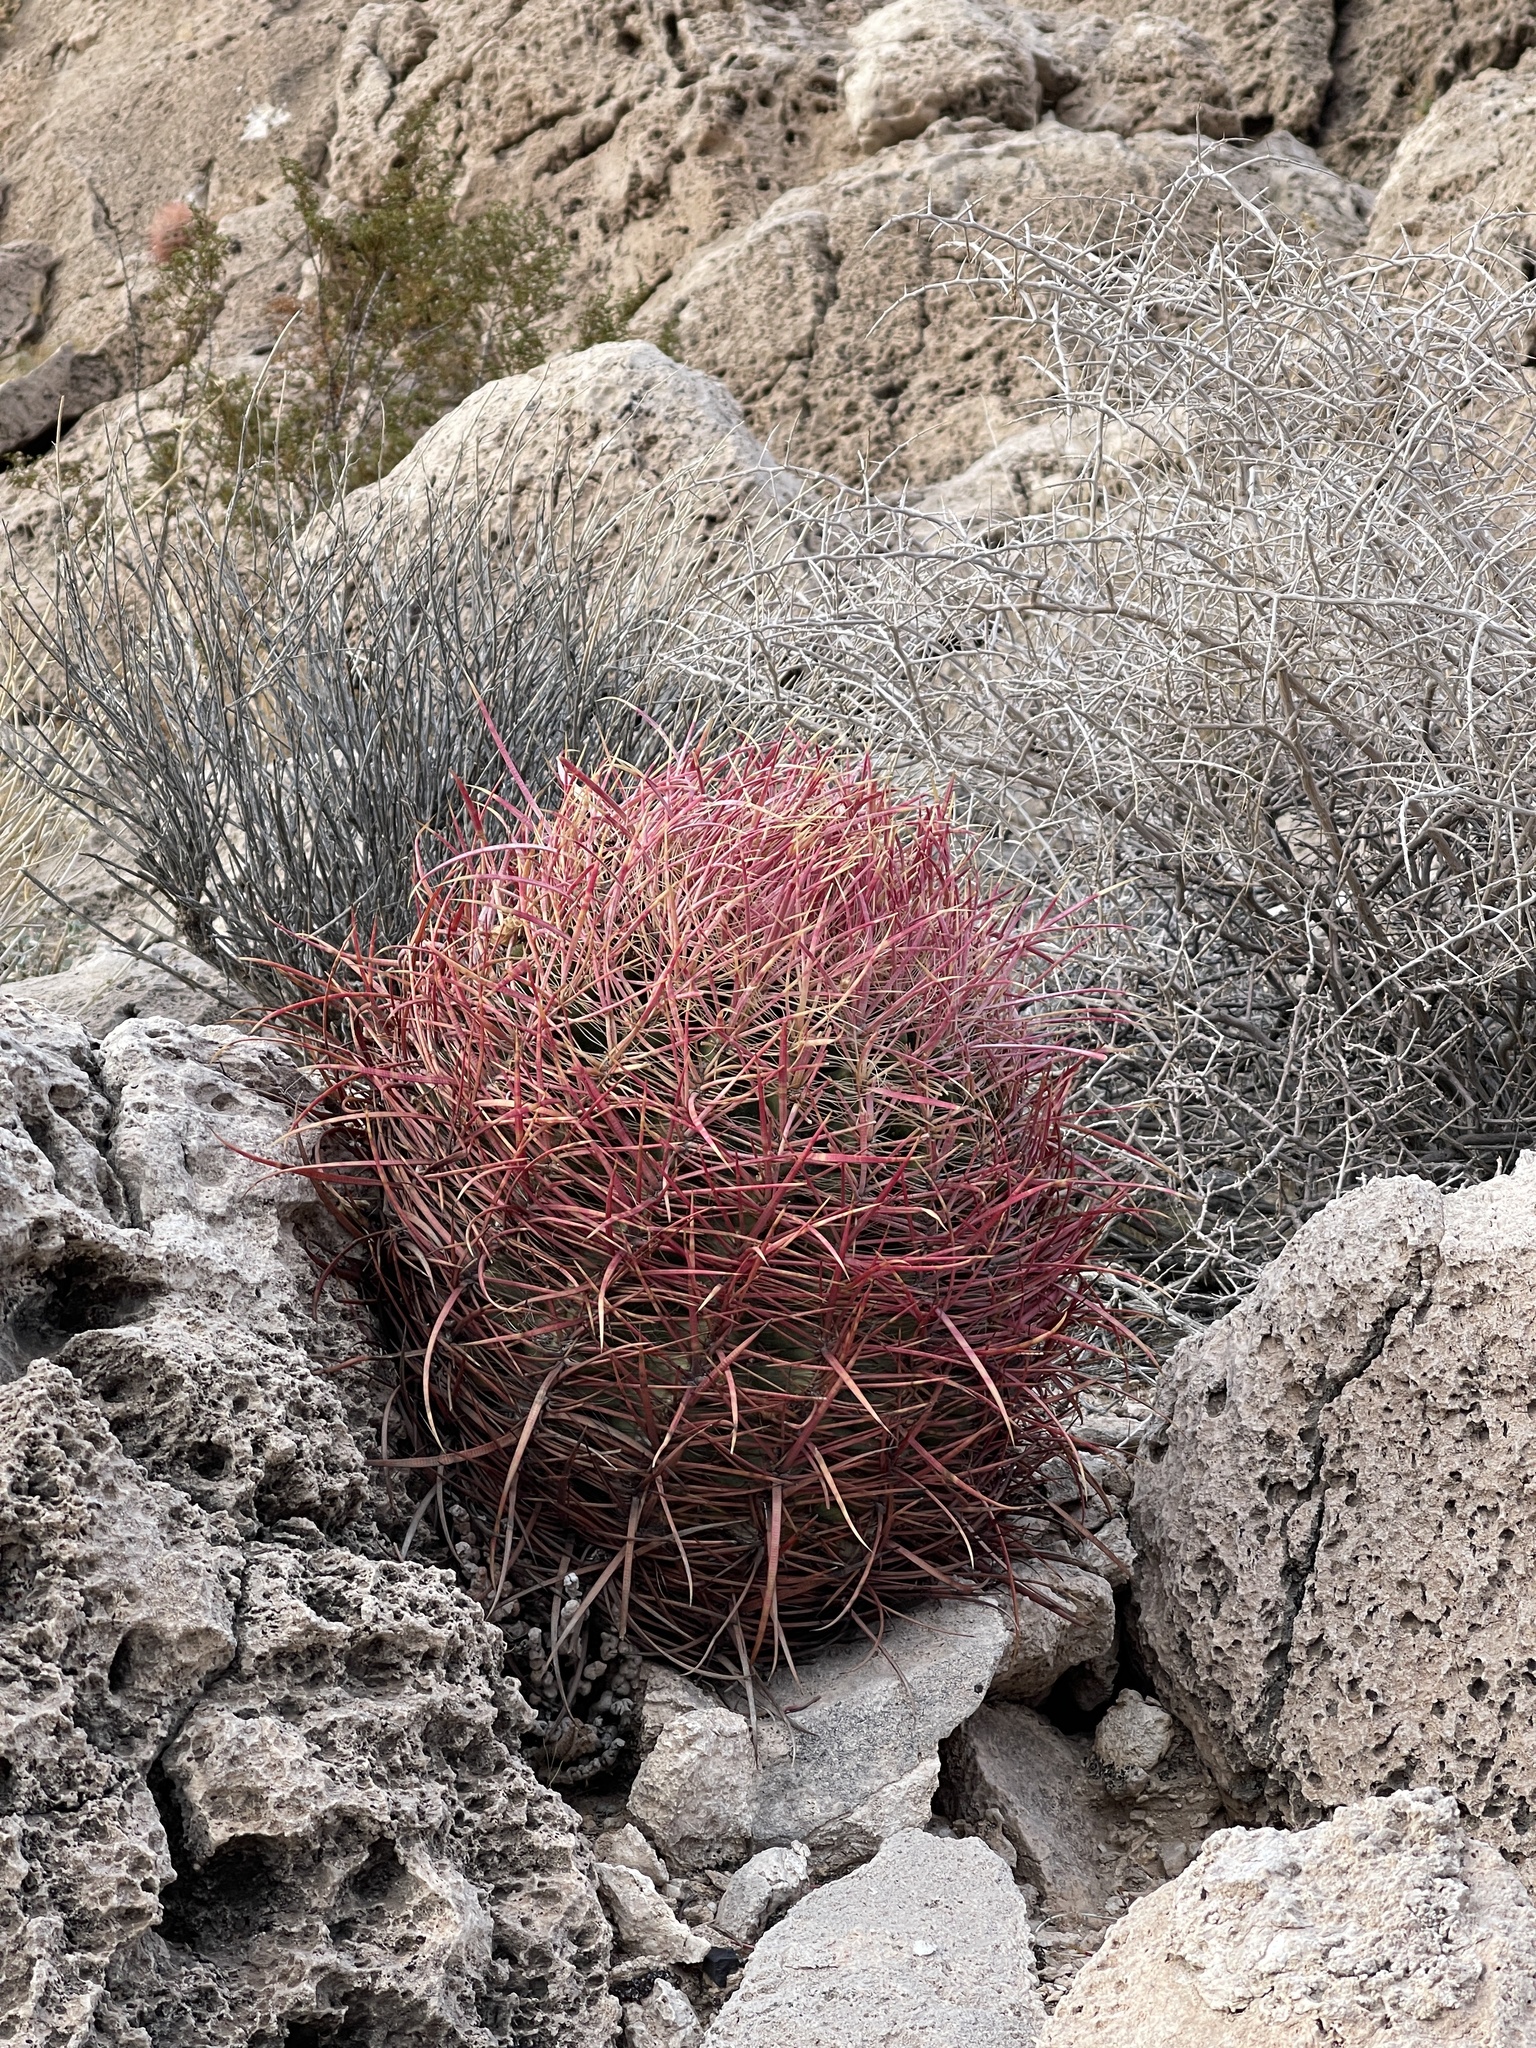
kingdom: Plantae
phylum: Tracheophyta
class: Magnoliopsida
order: Caryophyllales
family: Cactaceae
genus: Ferocactus
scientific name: Ferocactus cylindraceus
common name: California barrel cactus
